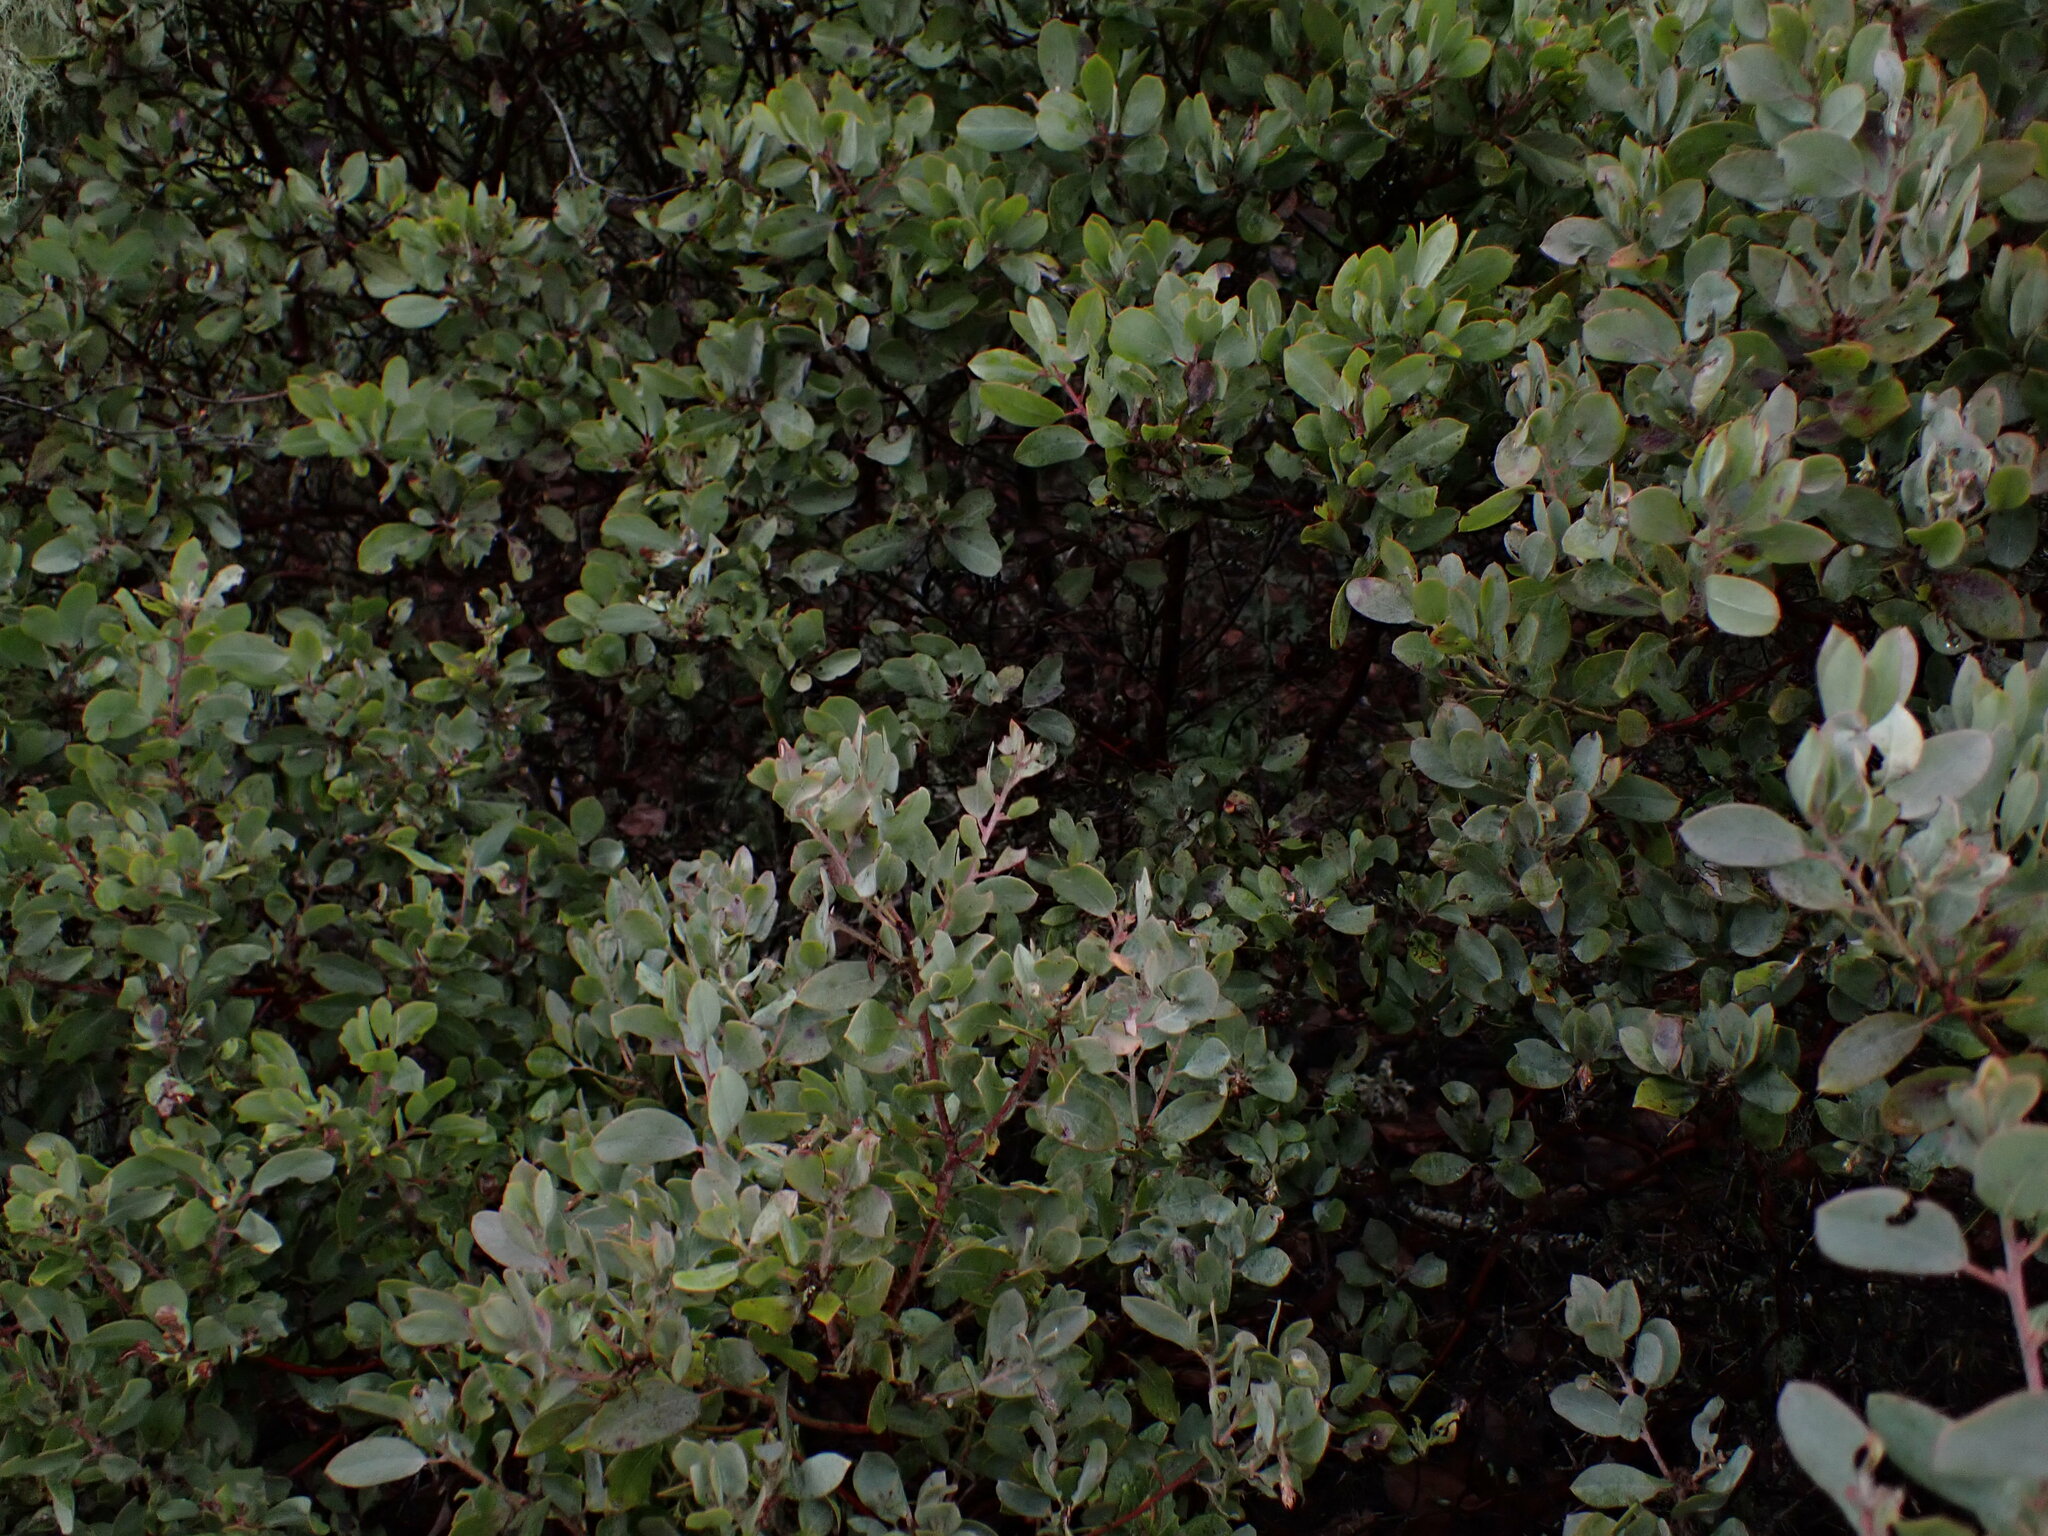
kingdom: Plantae
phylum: Tracheophyta
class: Magnoliopsida
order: Ericales
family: Ericaceae
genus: Arctostaphylos
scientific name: Arctostaphylos columbiana
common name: Bristly bearberry
